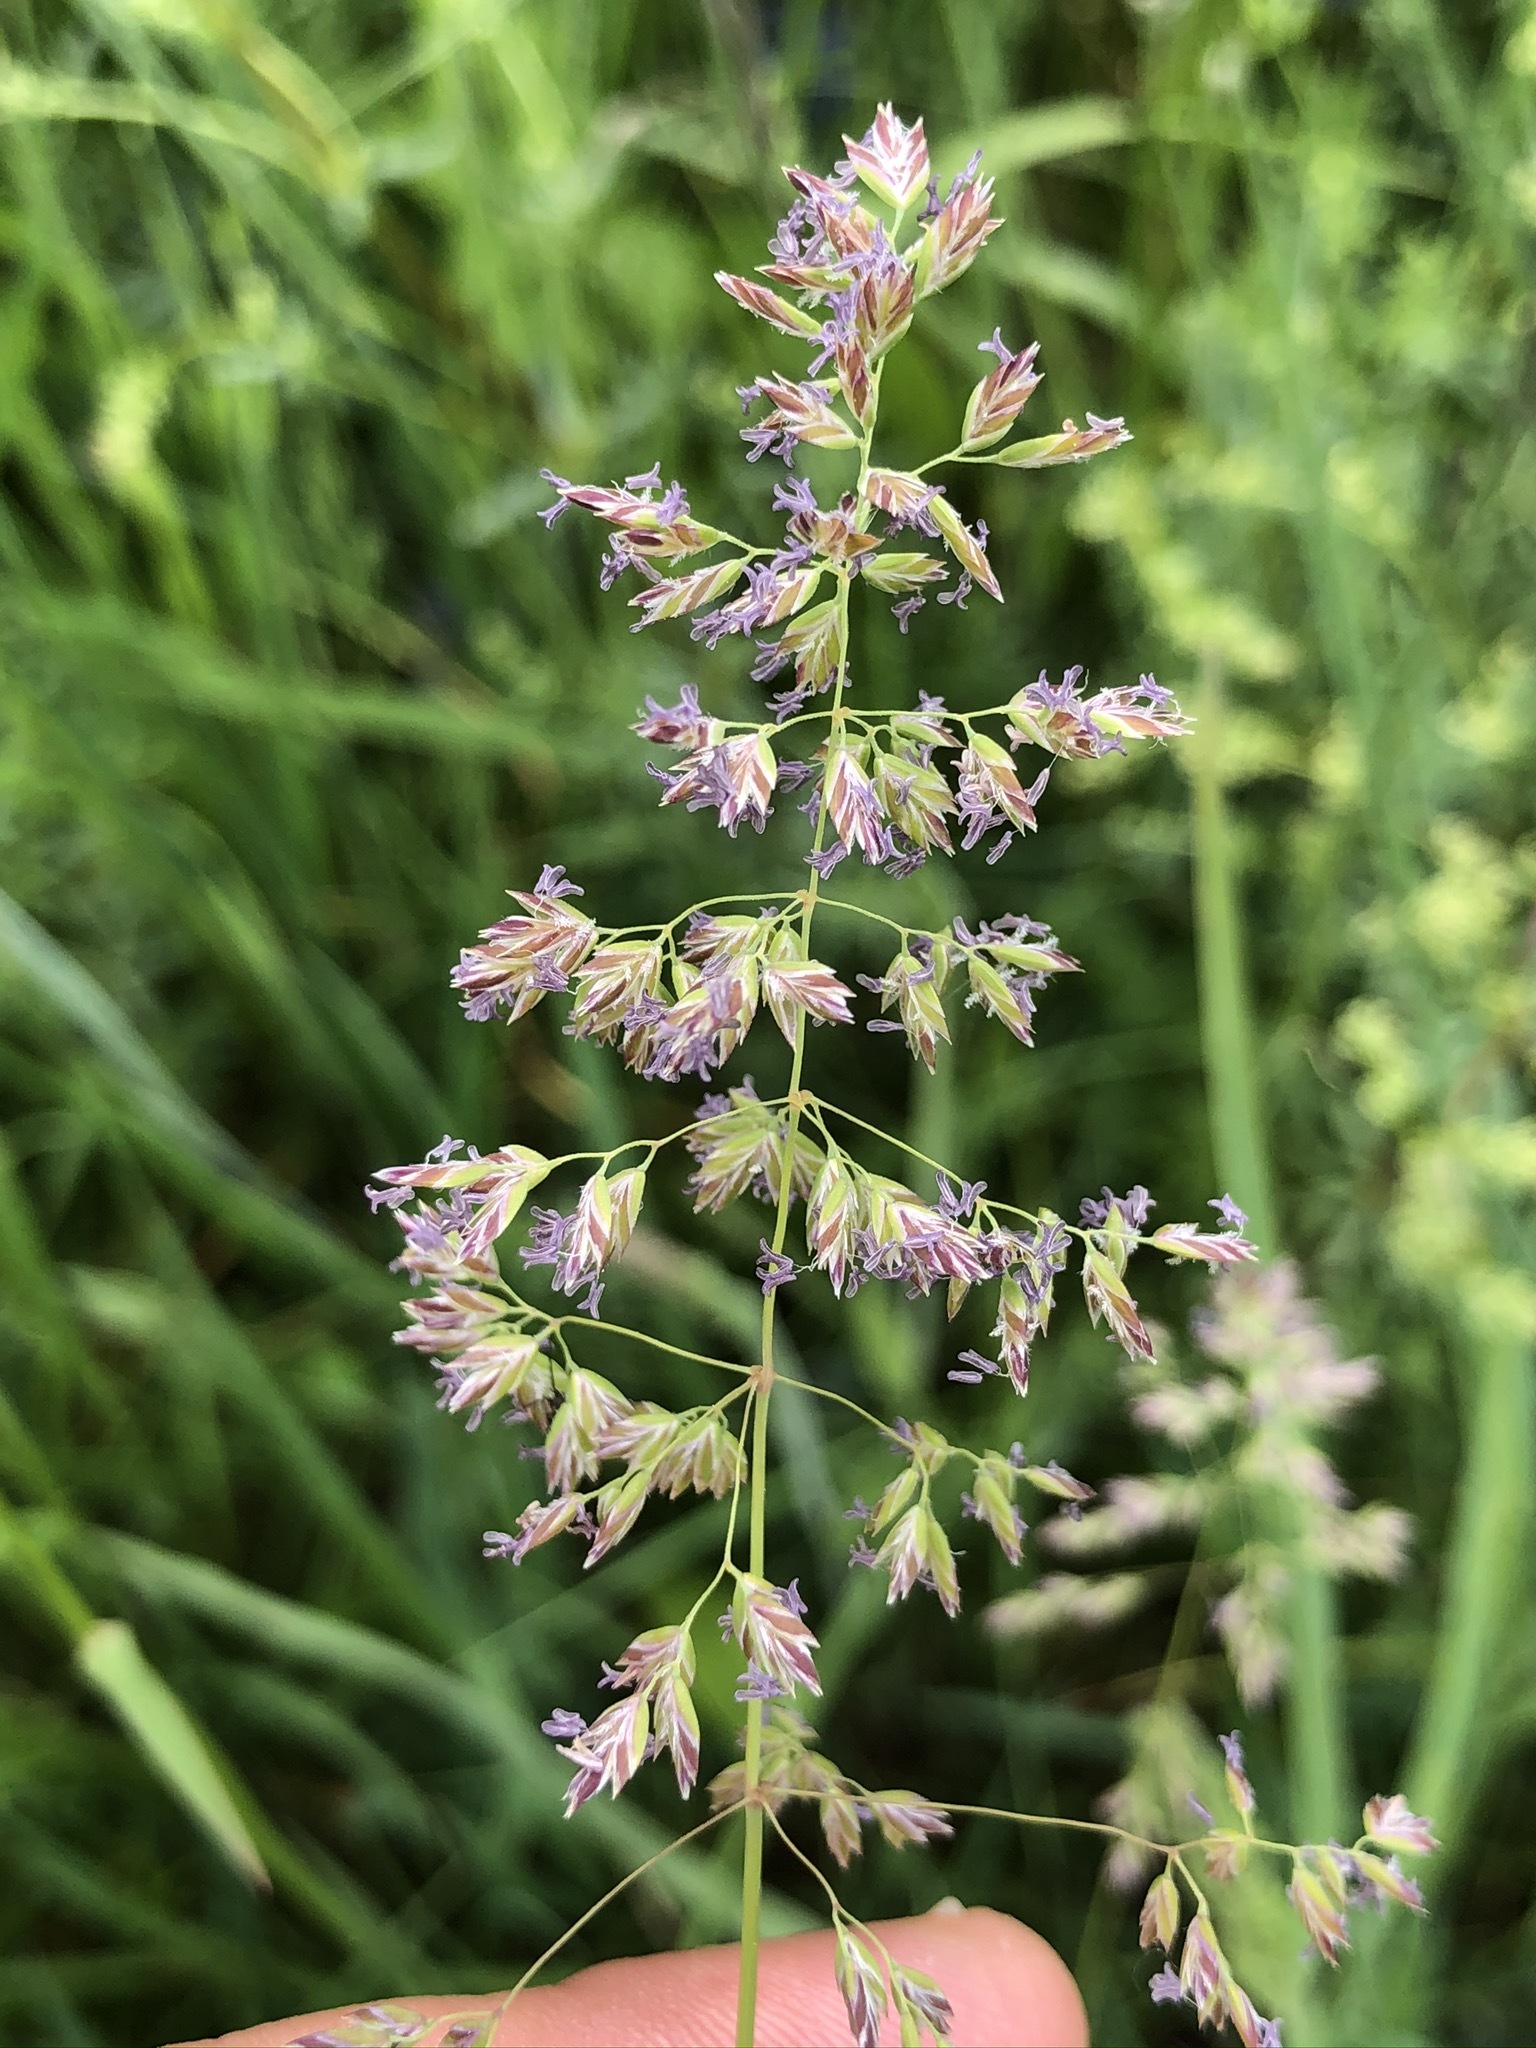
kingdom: Plantae
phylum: Tracheophyta
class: Liliopsida
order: Poales
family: Poaceae
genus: Poa
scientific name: Poa pratensis
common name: Kentucky bluegrass
